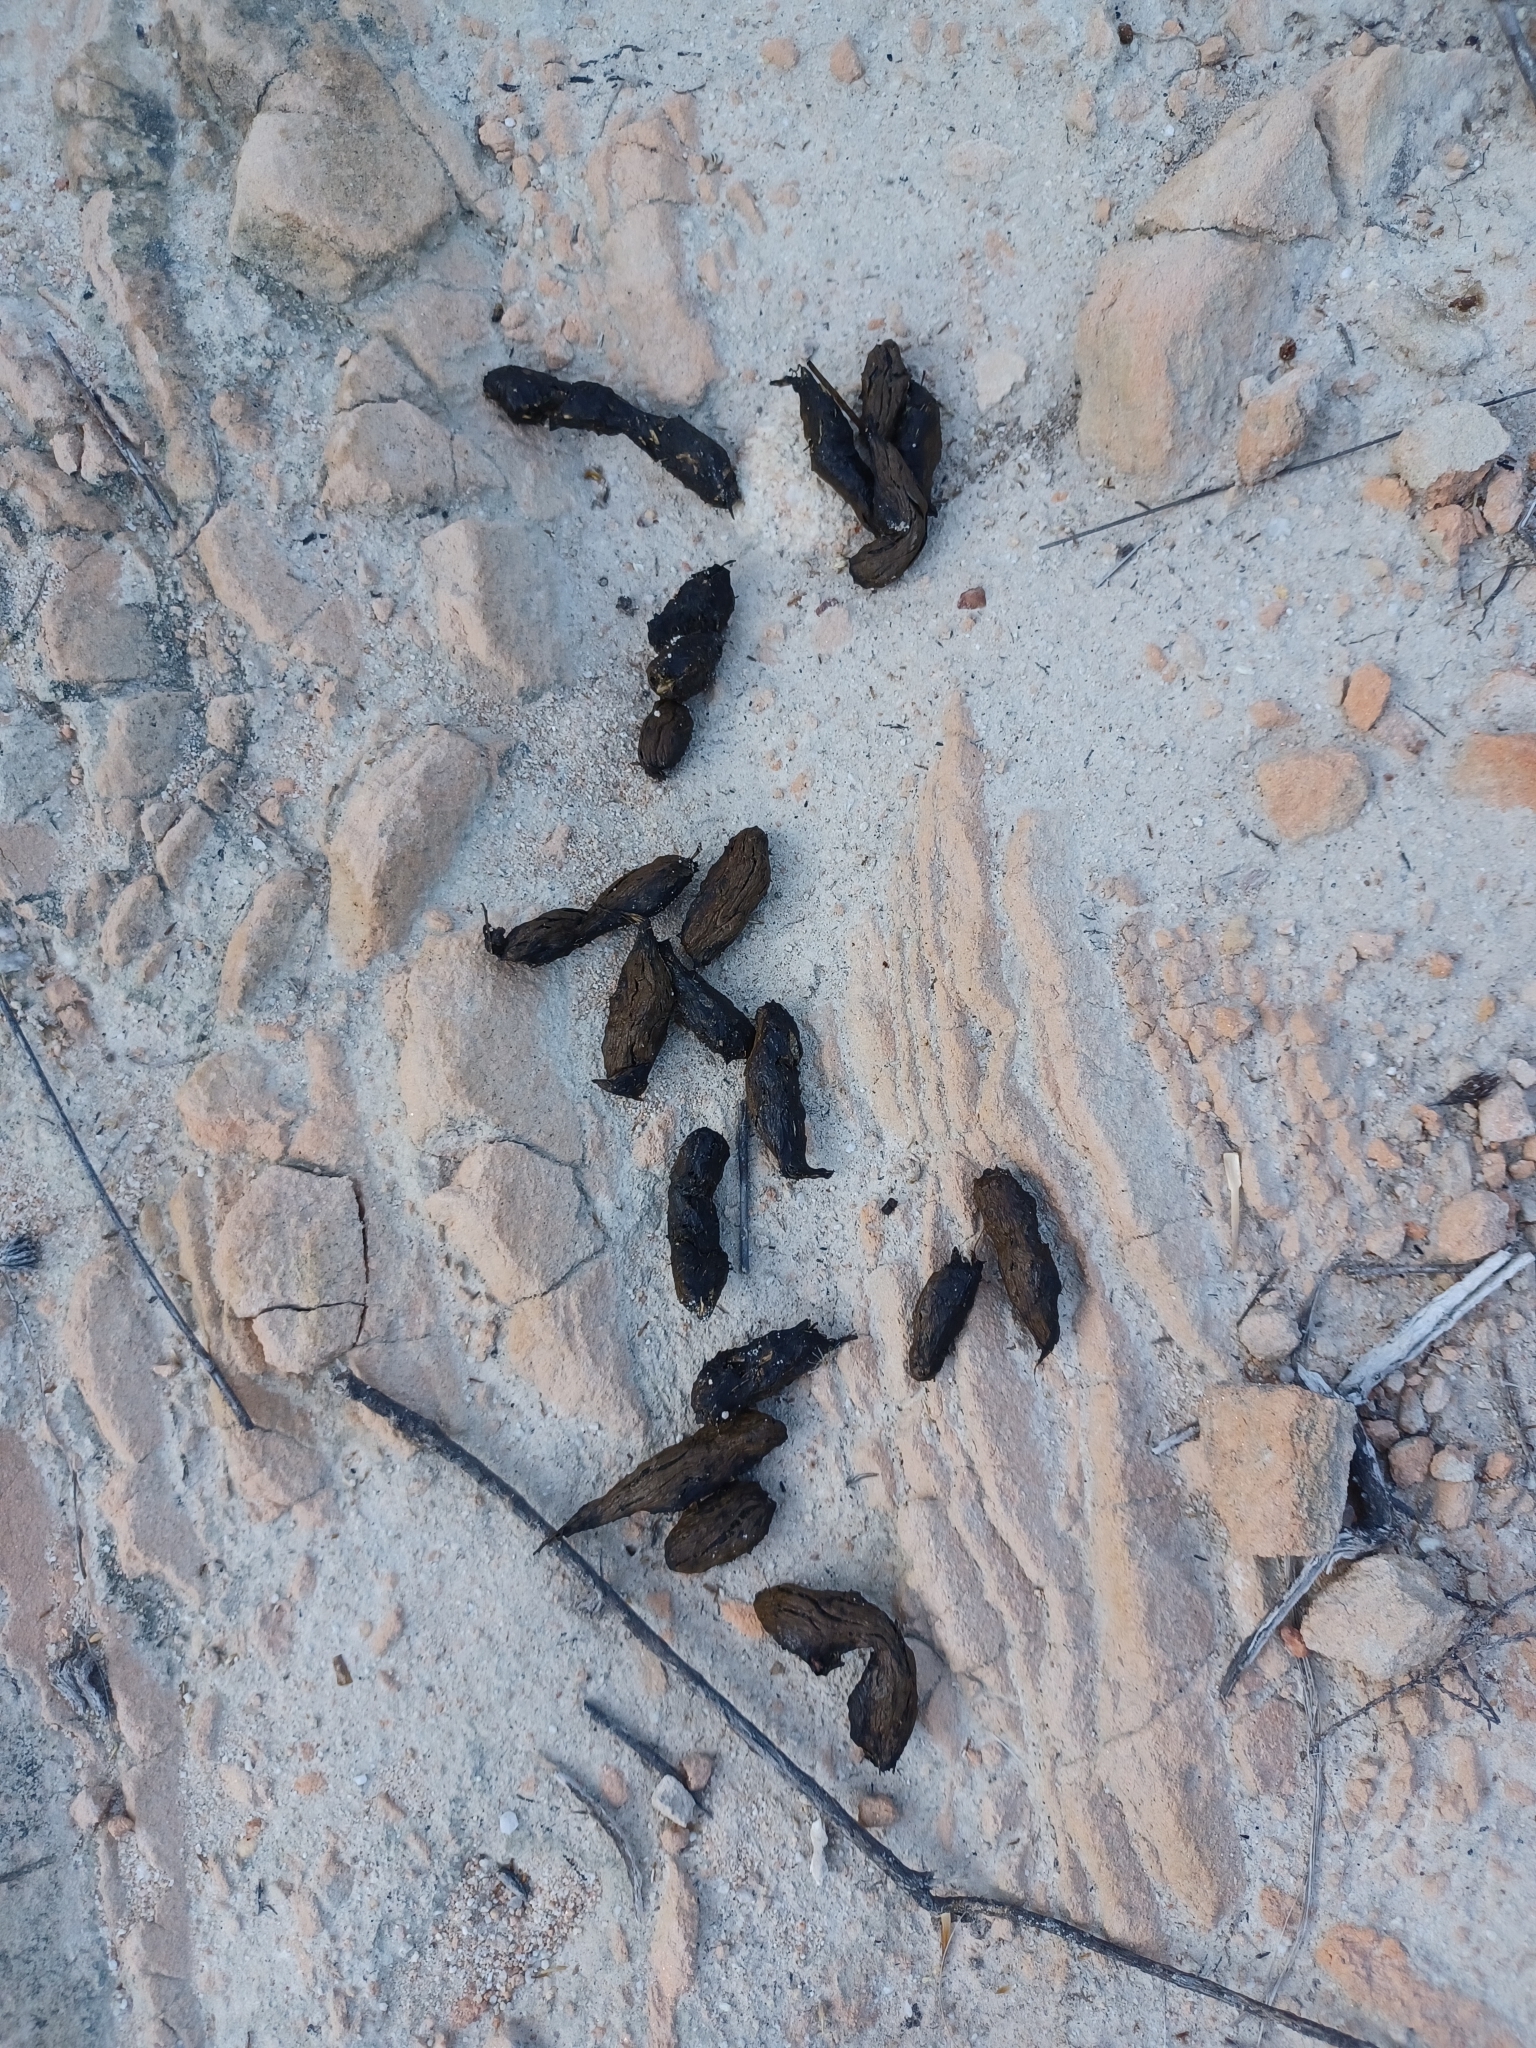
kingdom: Animalia
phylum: Chordata
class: Mammalia
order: Rodentia
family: Hystricidae
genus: Hystrix
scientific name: Hystrix africaeaustralis
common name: Cape porcupine
